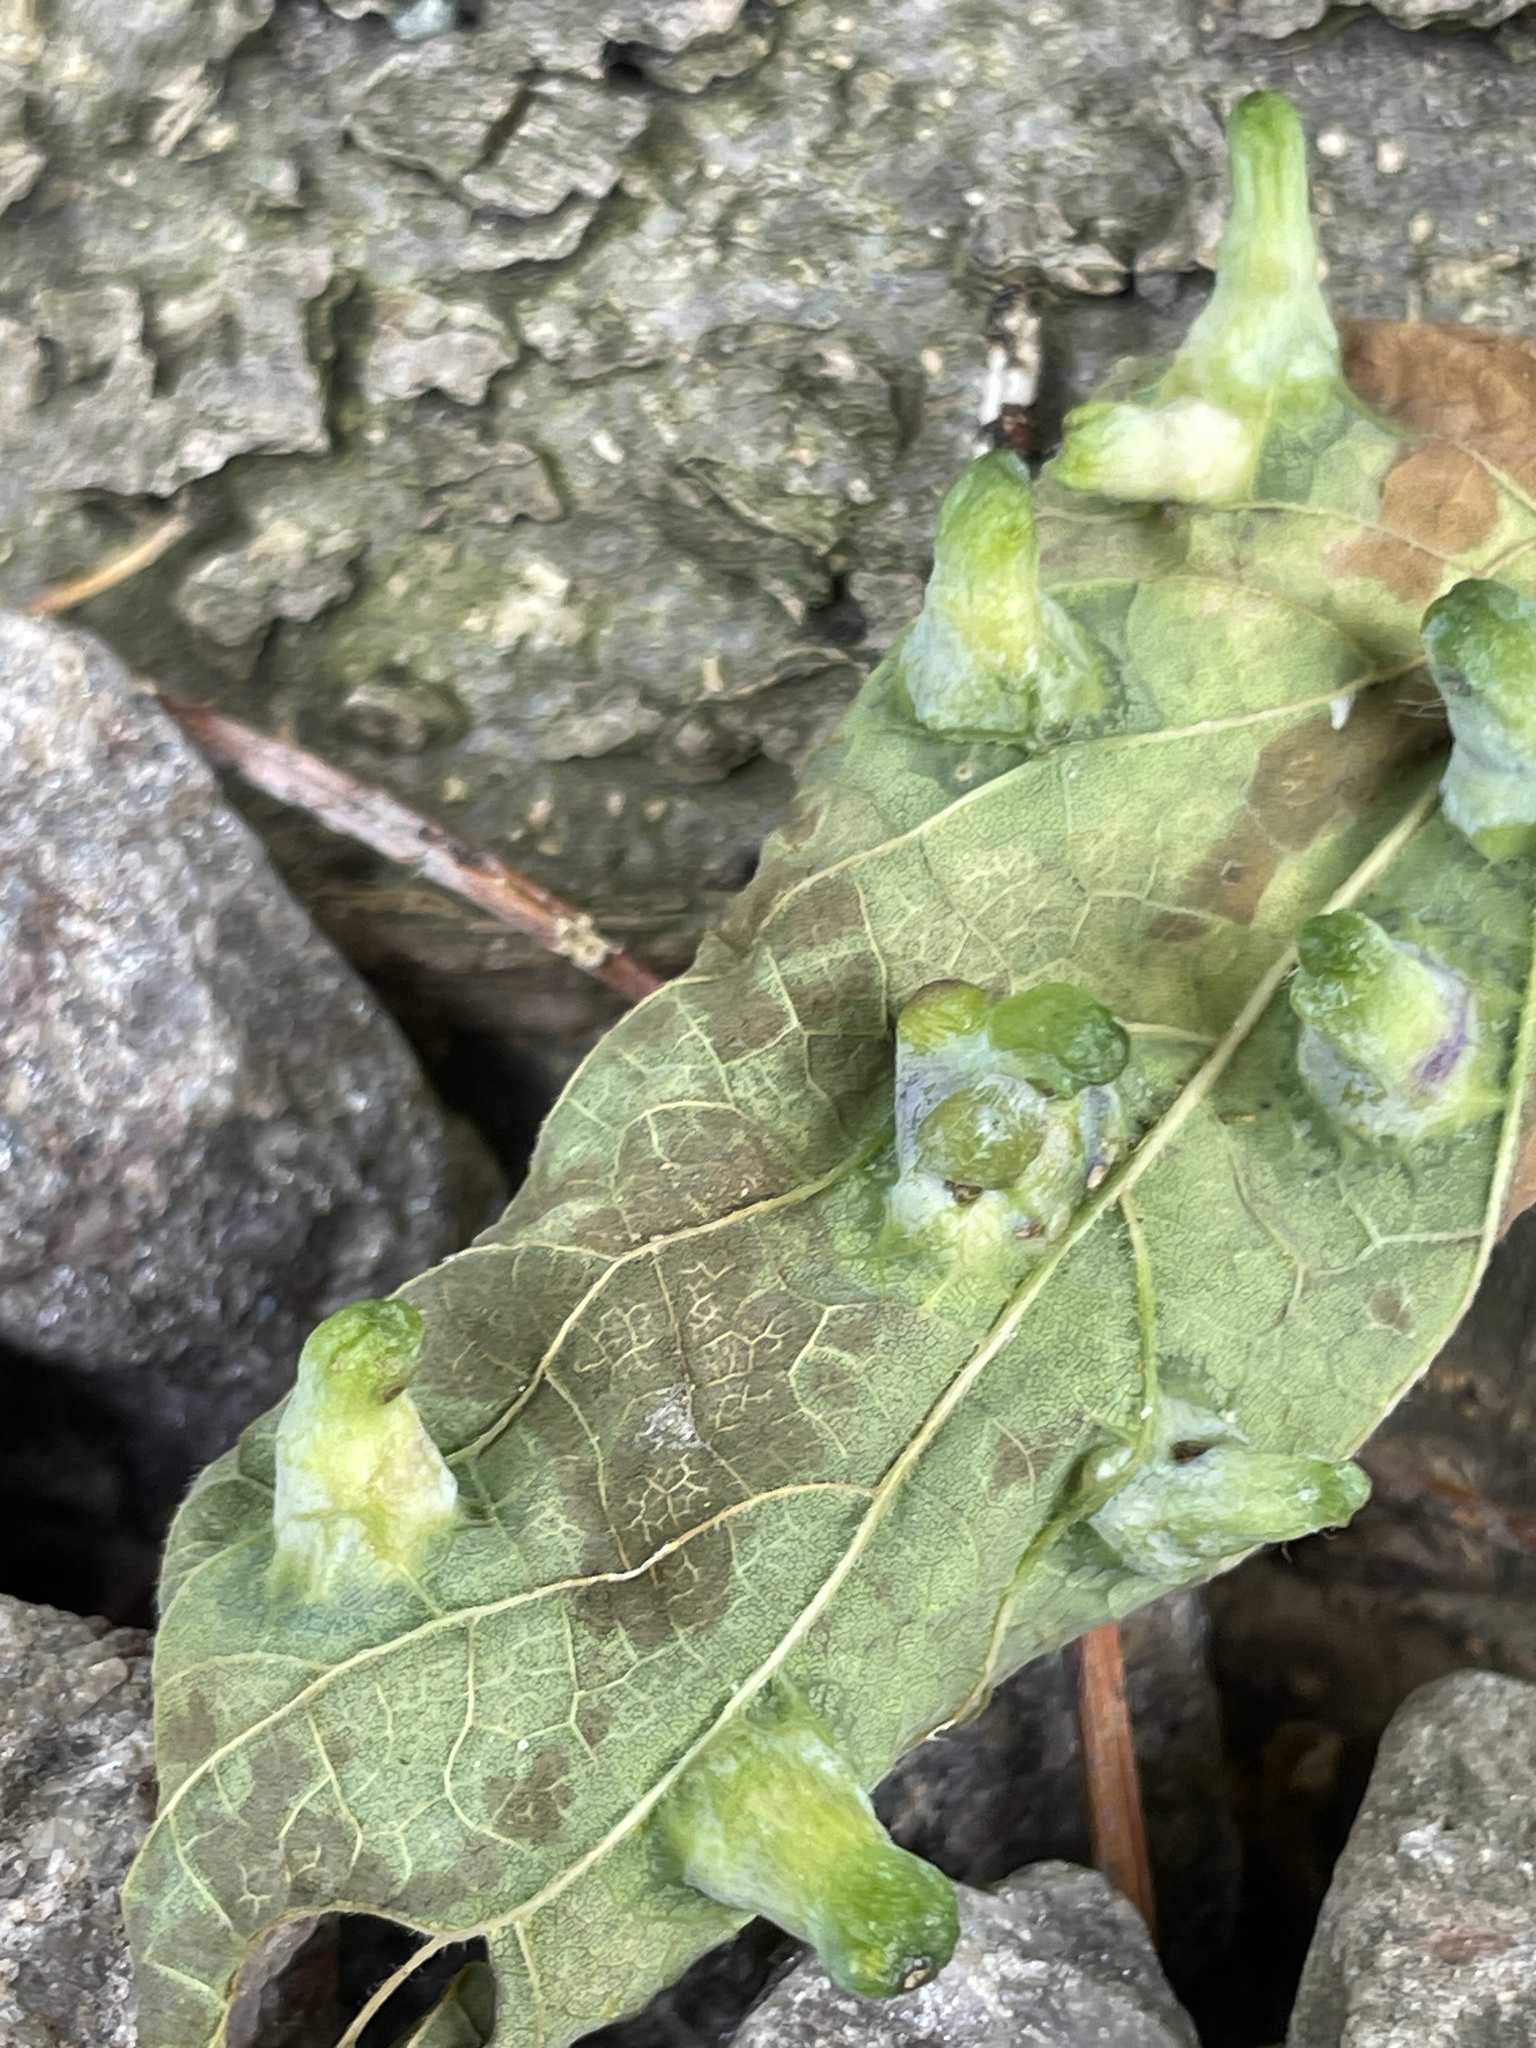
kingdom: Animalia
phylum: Arthropoda
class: Insecta
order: Hemiptera
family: Aphalaridae
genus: Pachypsylla
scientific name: Pachypsylla celtidismamma
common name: Hackberry nipplegall psyllid
